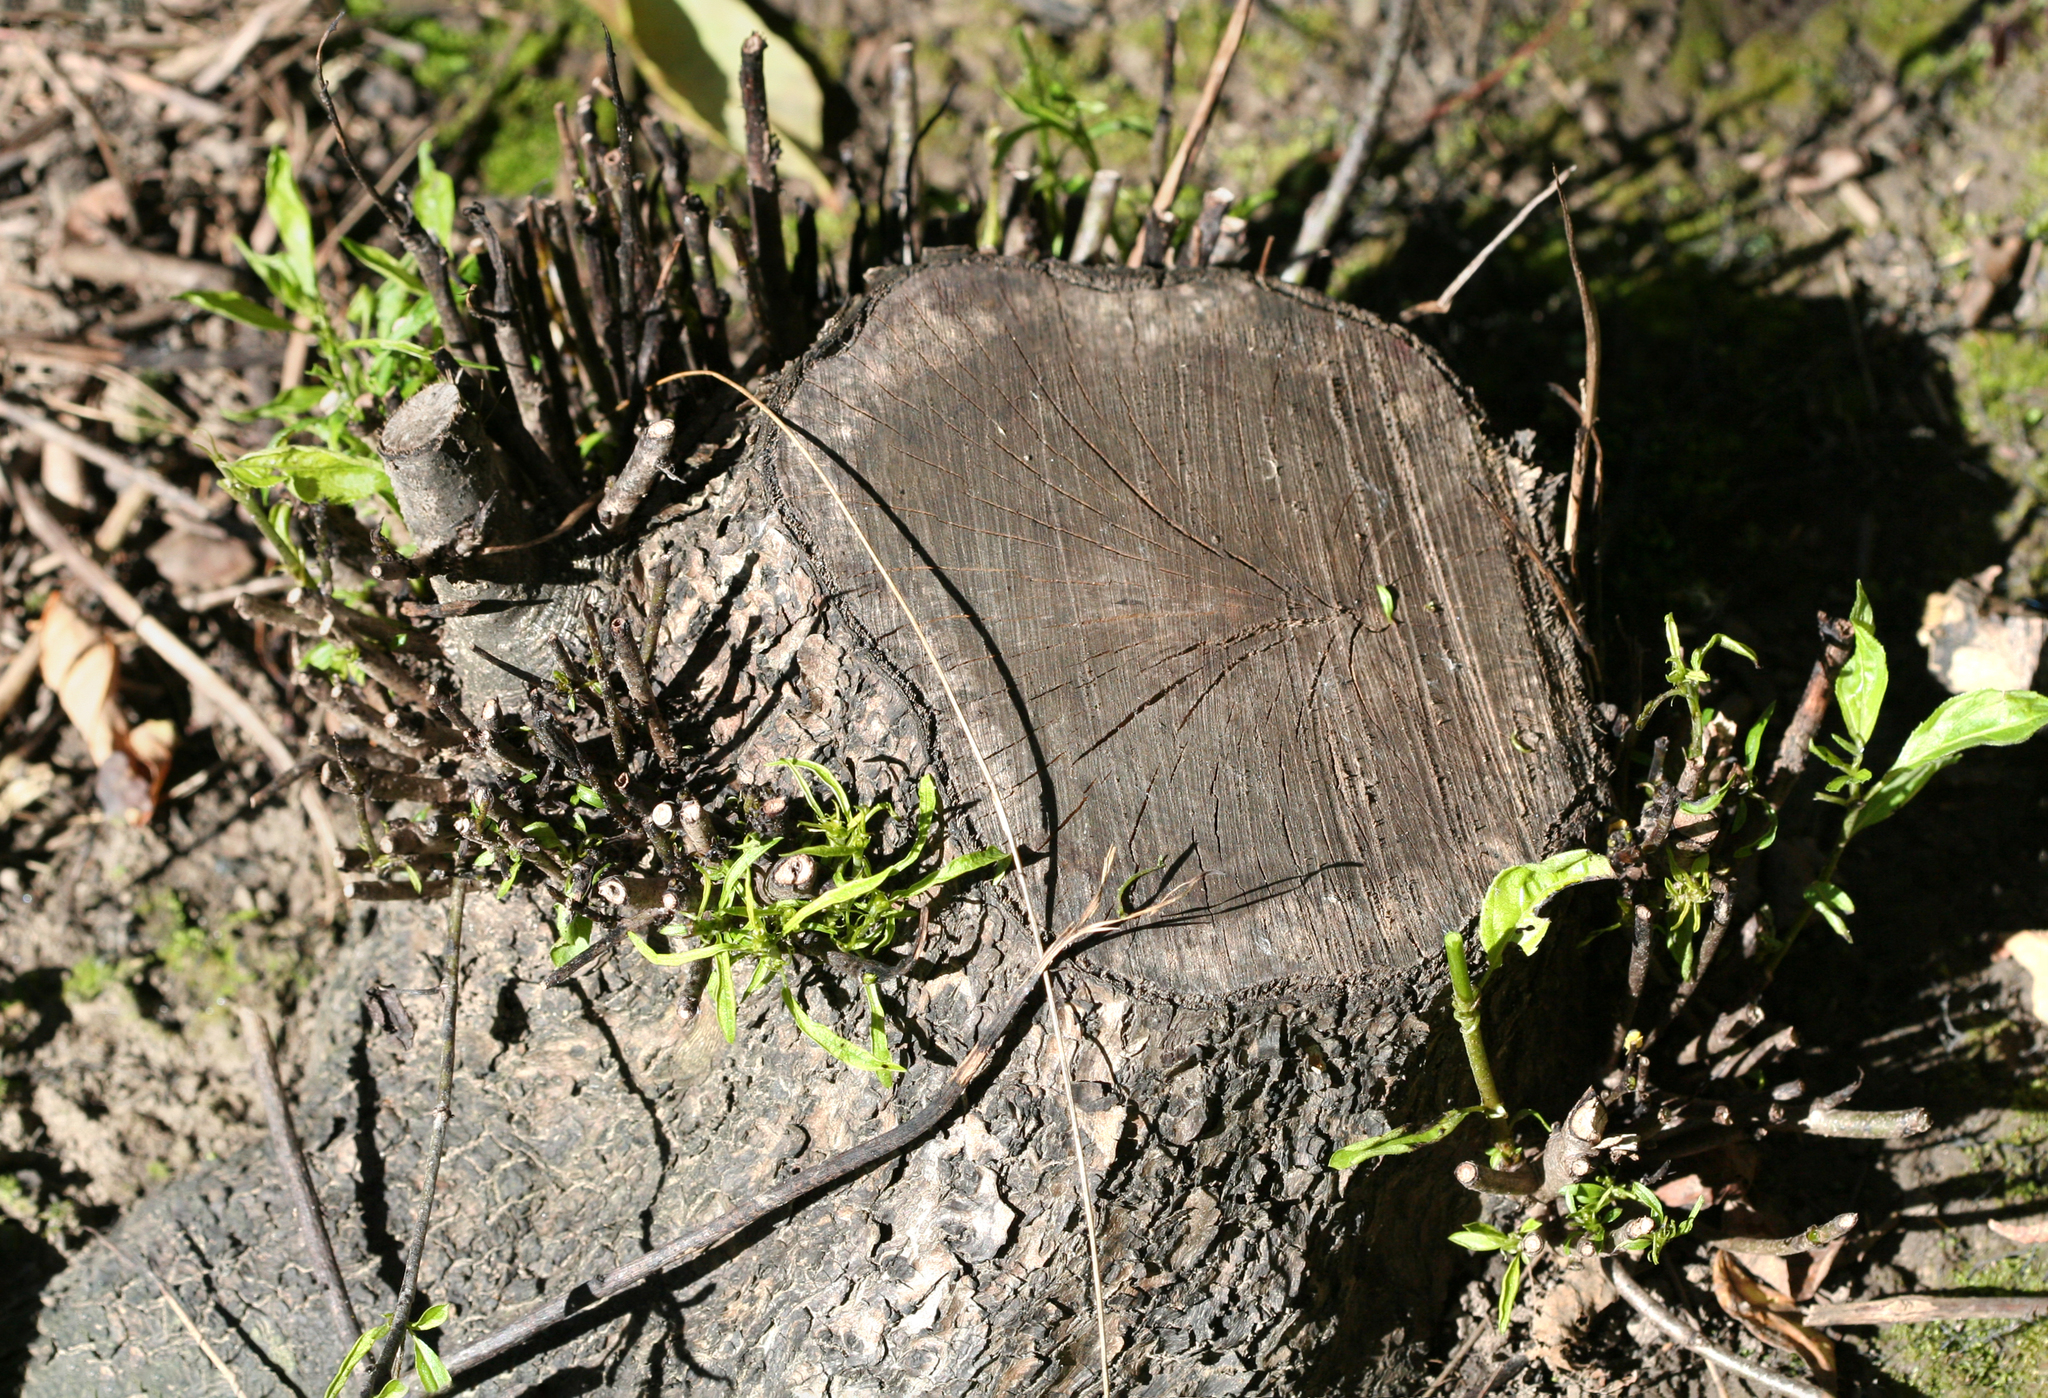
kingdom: Plantae
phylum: Tracheophyta
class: Magnoliopsida
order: Rosales
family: Rhamnaceae
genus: Rhamnus
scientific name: Rhamnus cathartica
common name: Common buckthorn
